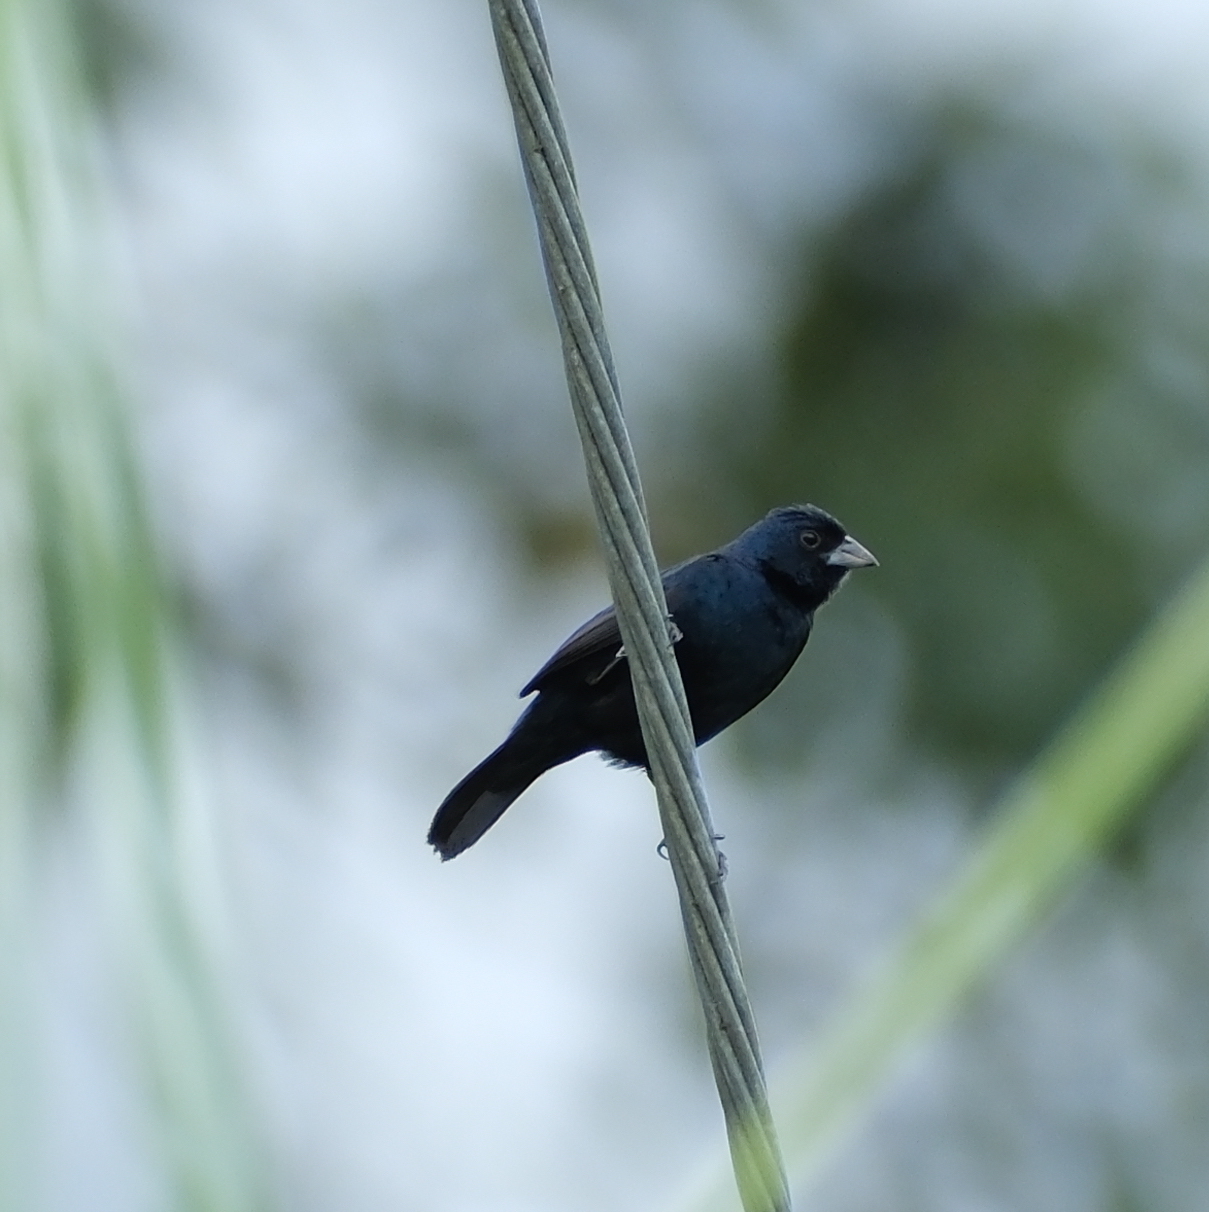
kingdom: Animalia
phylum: Chordata
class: Aves
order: Passeriformes
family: Thraupidae
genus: Volatinia
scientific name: Volatinia jacarina
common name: Blue-black grassquit
